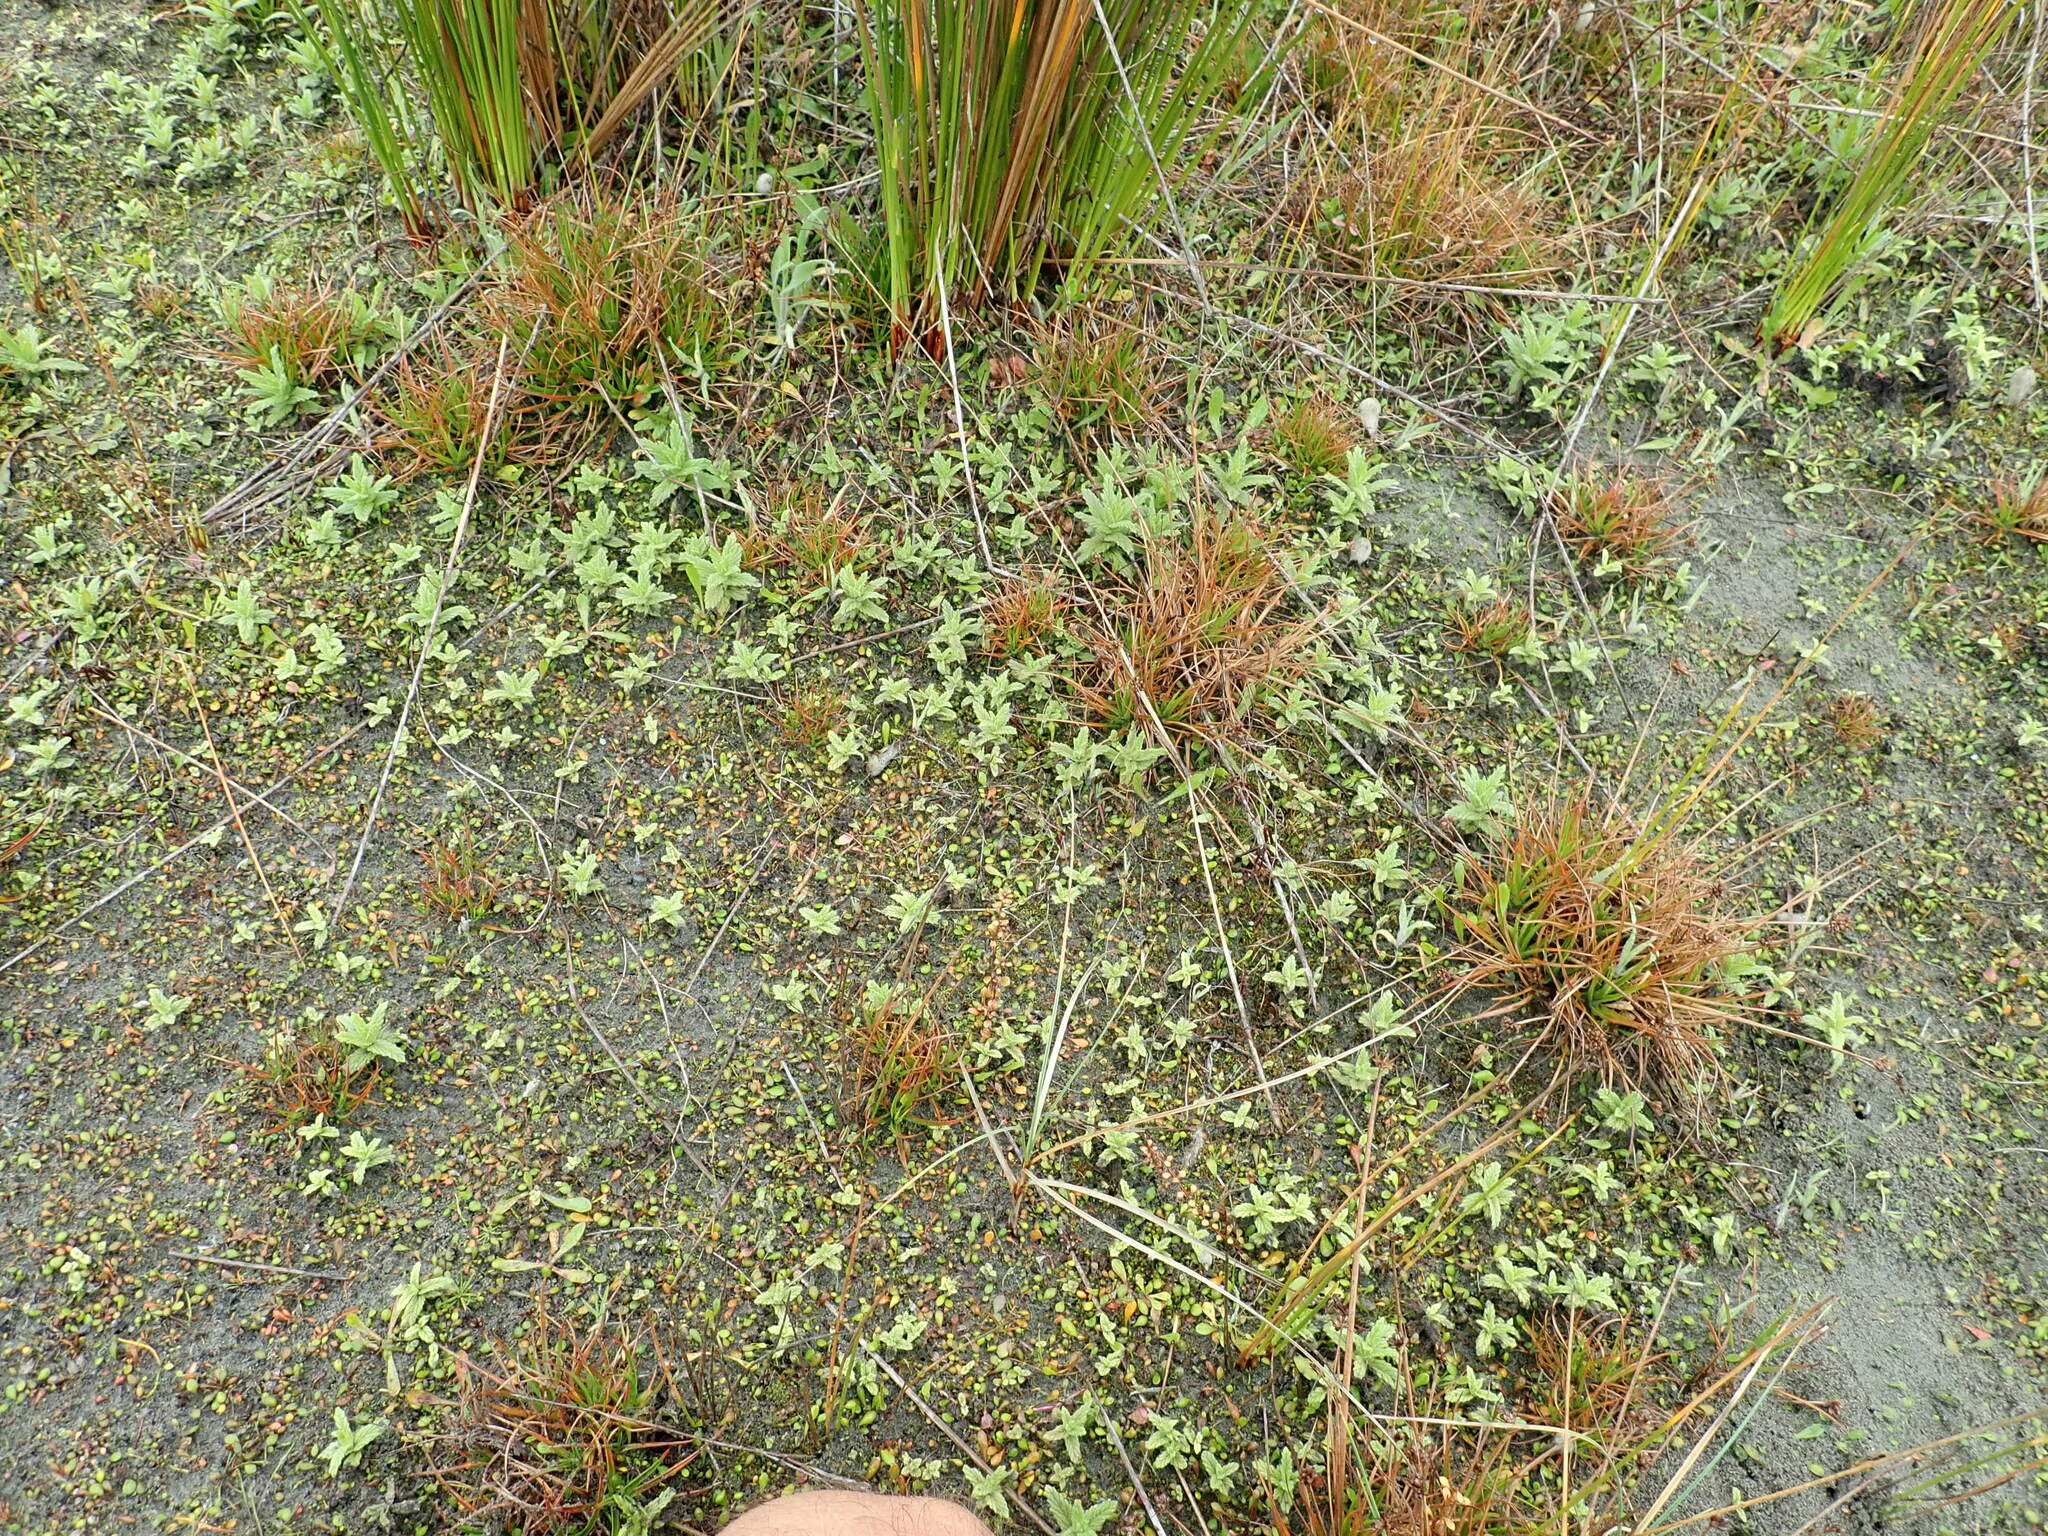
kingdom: Plantae
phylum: Tracheophyta
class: Magnoliopsida
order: Lamiales
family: Orobanchaceae
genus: Bellardia
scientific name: Bellardia viscosa
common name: Sticky parentucellia
